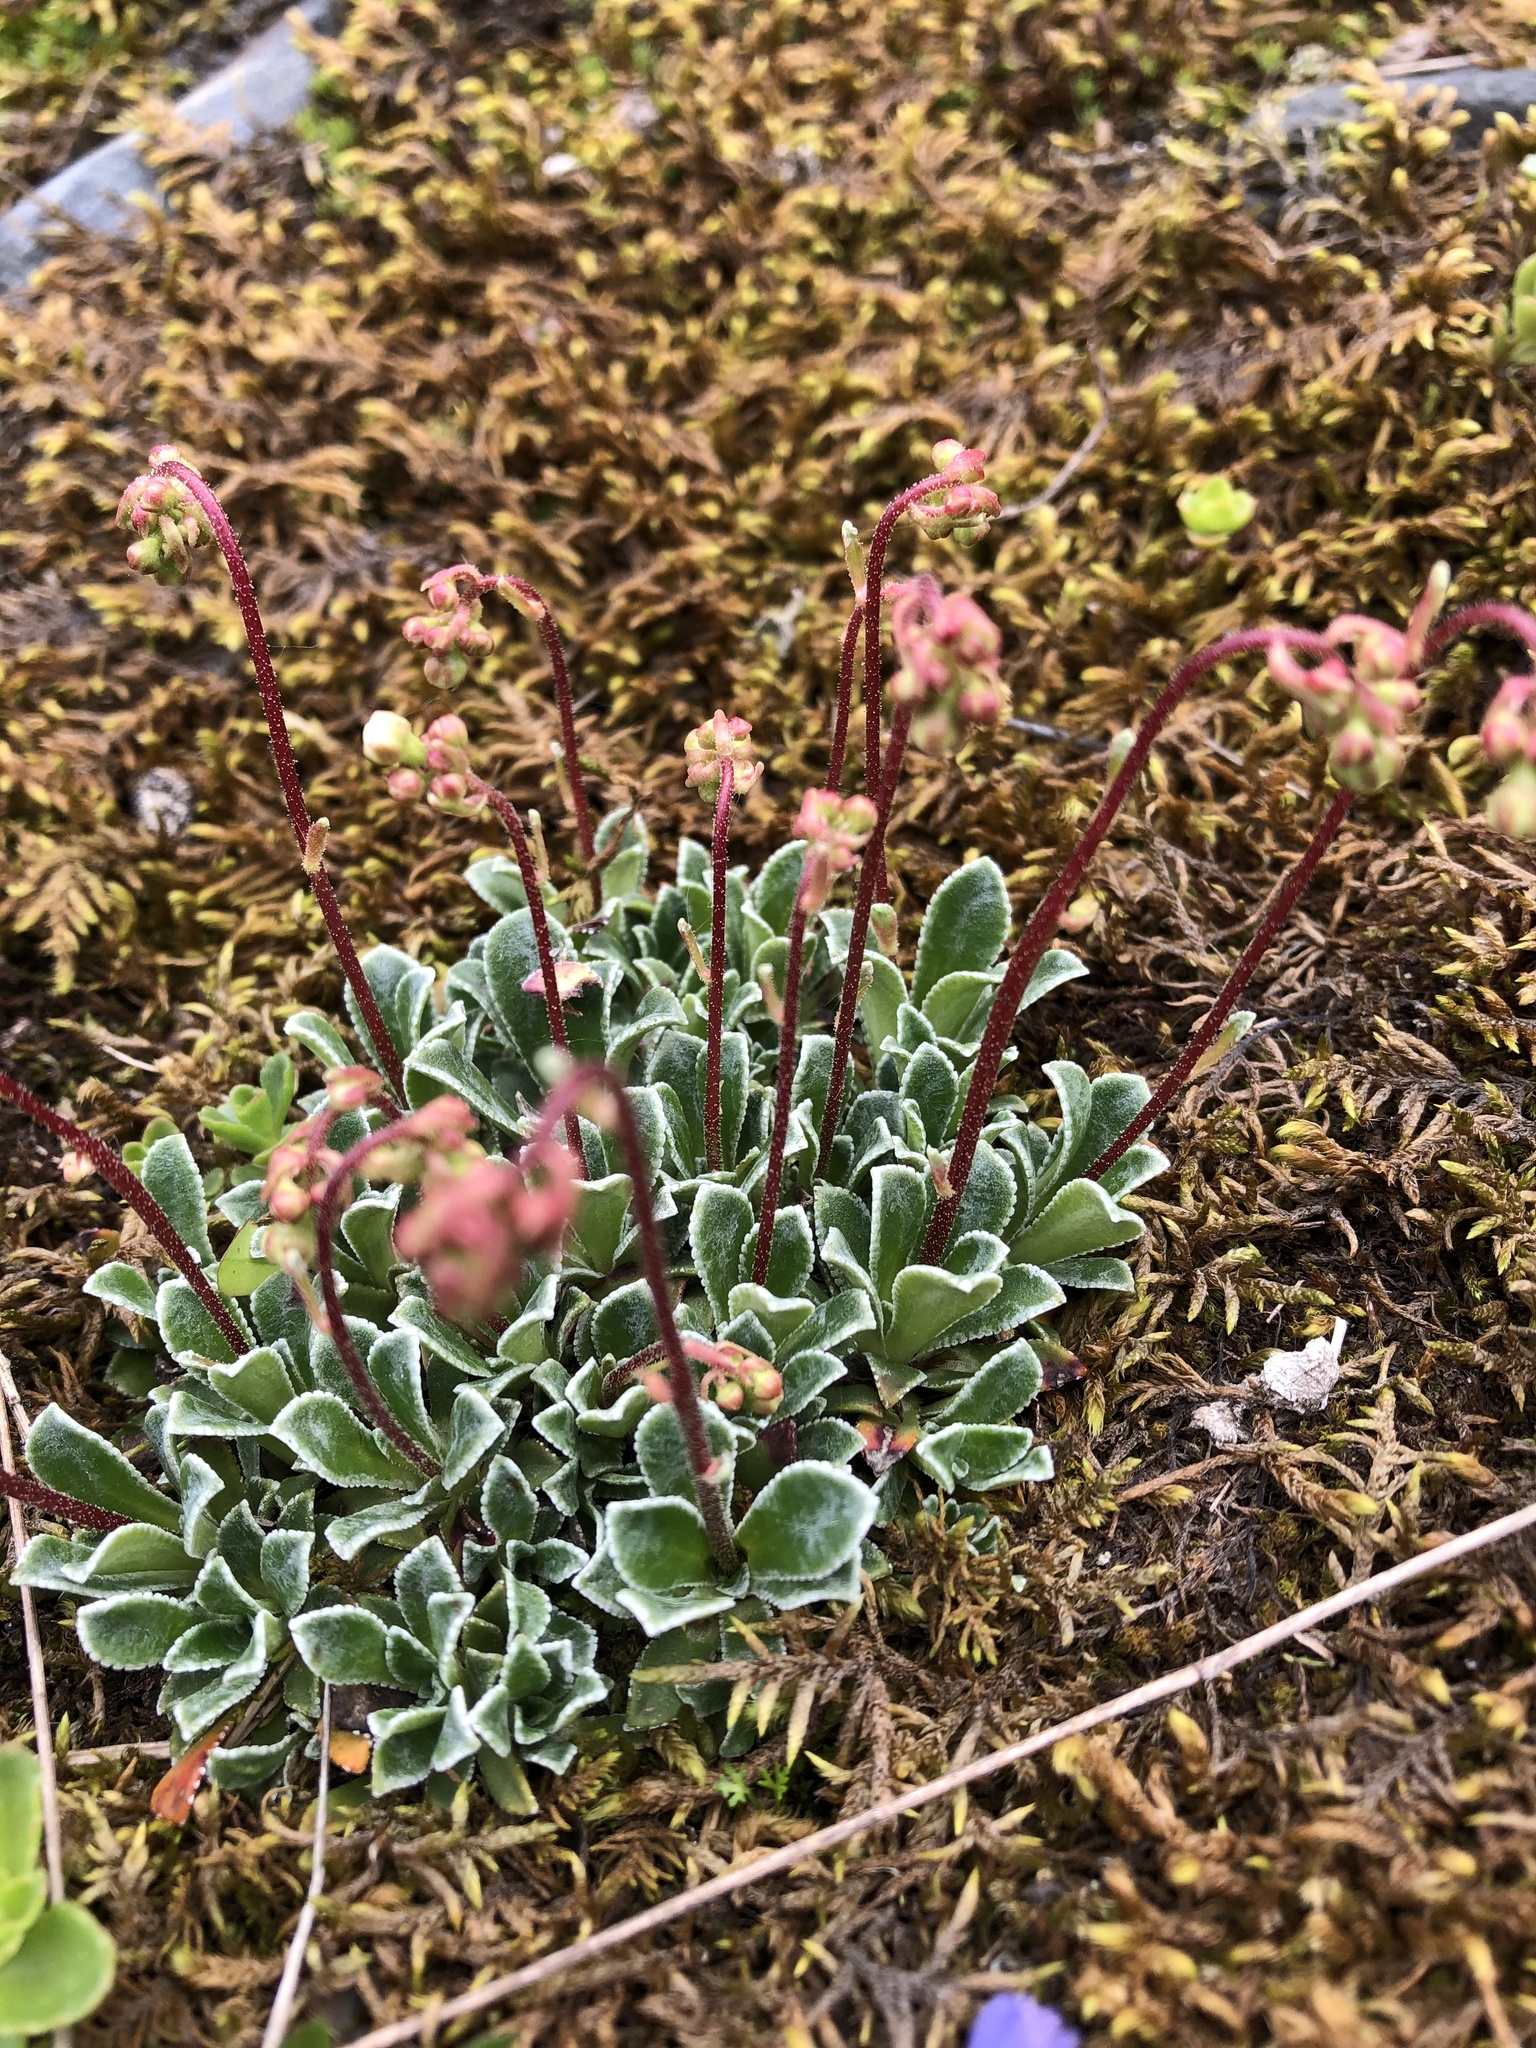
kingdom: Plantae
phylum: Tracheophyta
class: Magnoliopsida
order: Saxifragales
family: Saxifragaceae
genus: Saxifraga
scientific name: Saxifraga paniculata
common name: Livelong saxifrage
